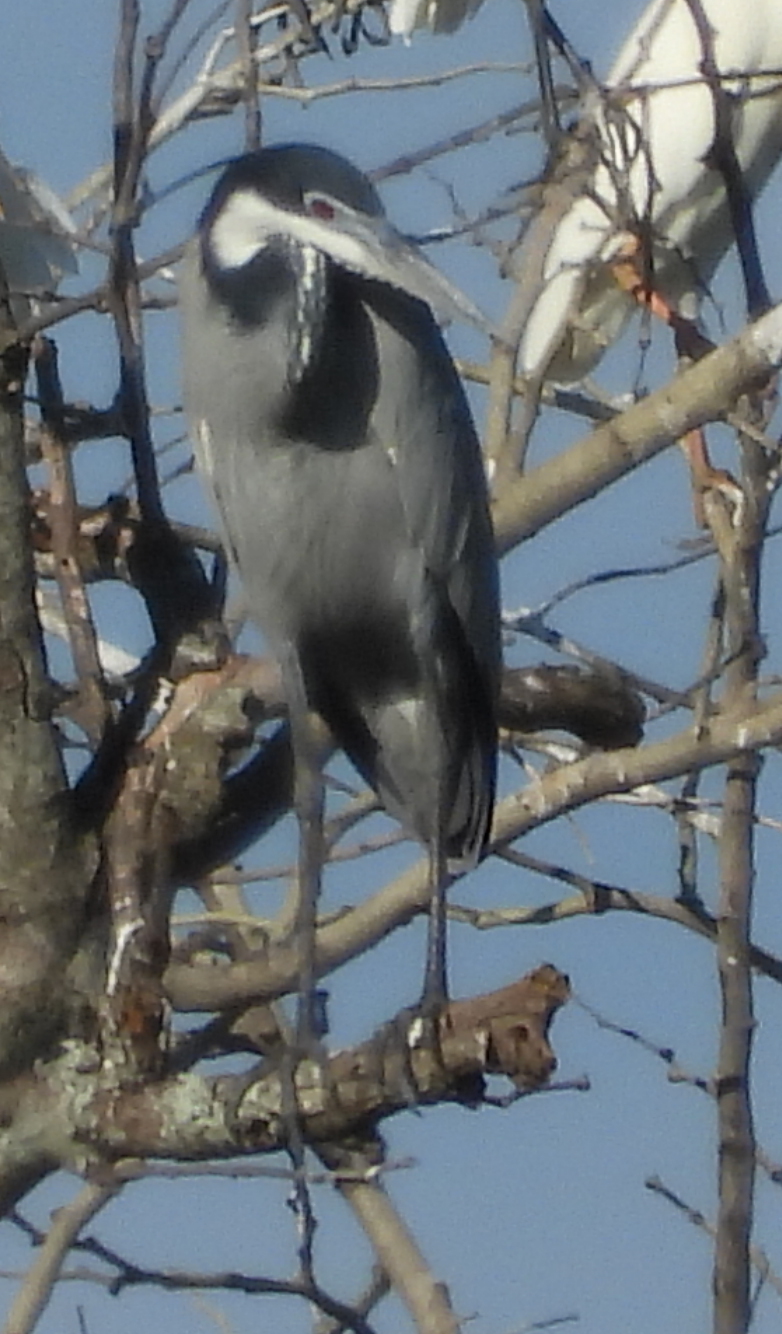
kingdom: Animalia
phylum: Chordata
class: Aves
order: Pelecaniformes
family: Ardeidae
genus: Ardea
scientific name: Ardea melanocephala
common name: Black-headed heron
